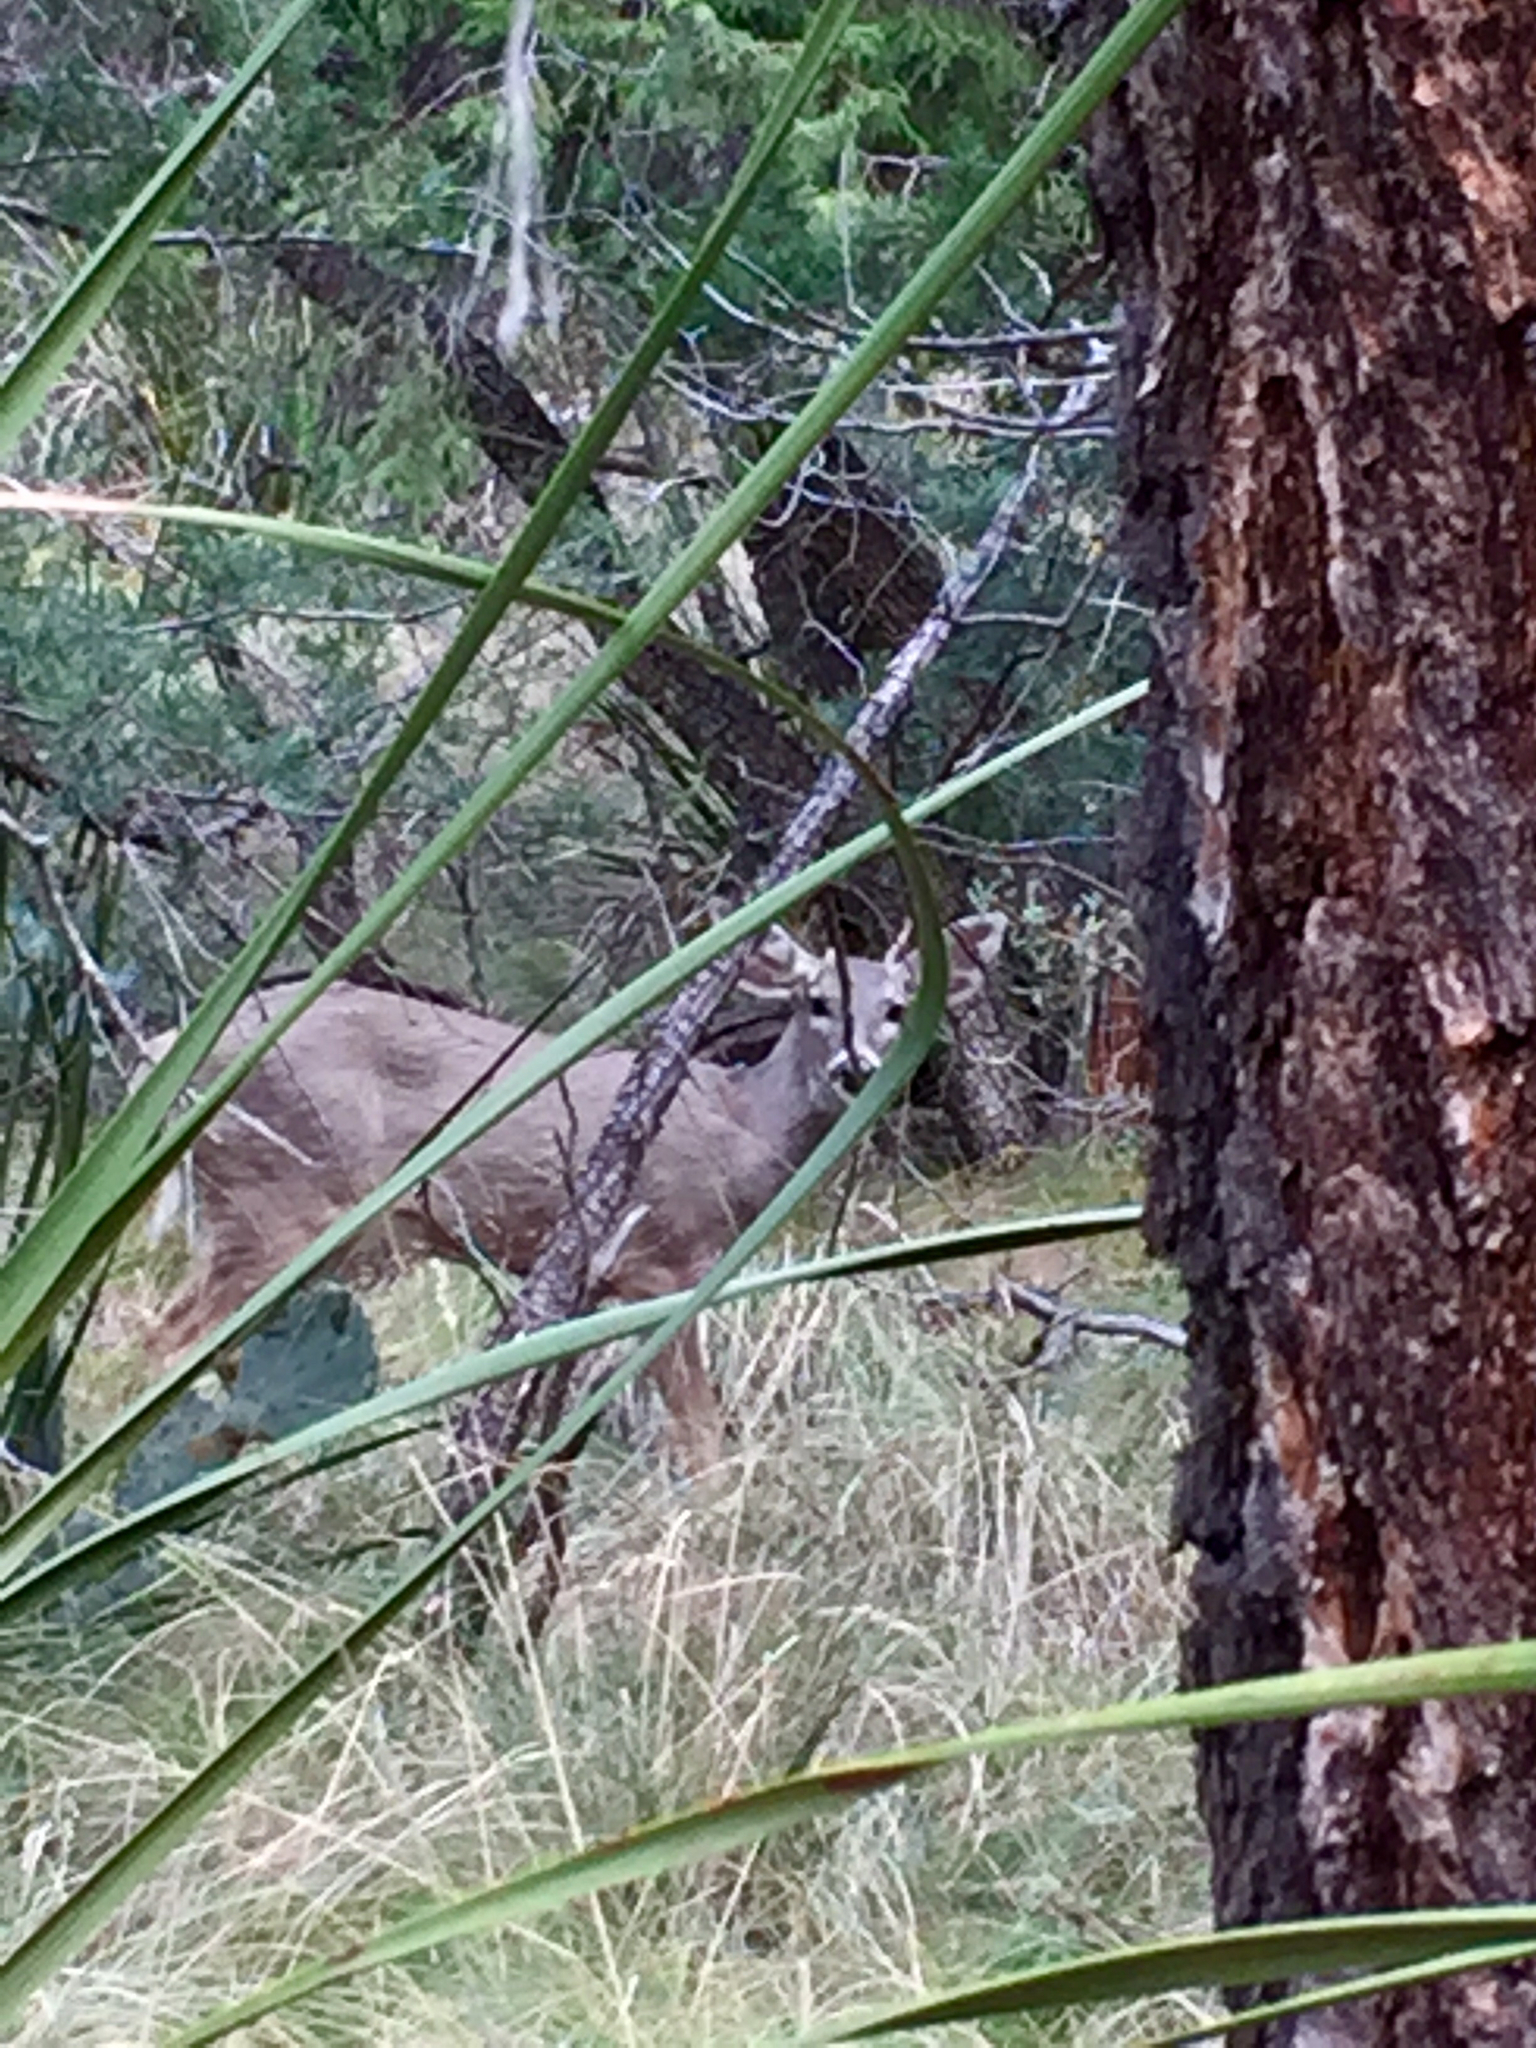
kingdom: Animalia
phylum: Chordata
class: Mammalia
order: Artiodactyla
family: Cervidae
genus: Odocoileus
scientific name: Odocoileus virginianus
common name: White-tailed deer
